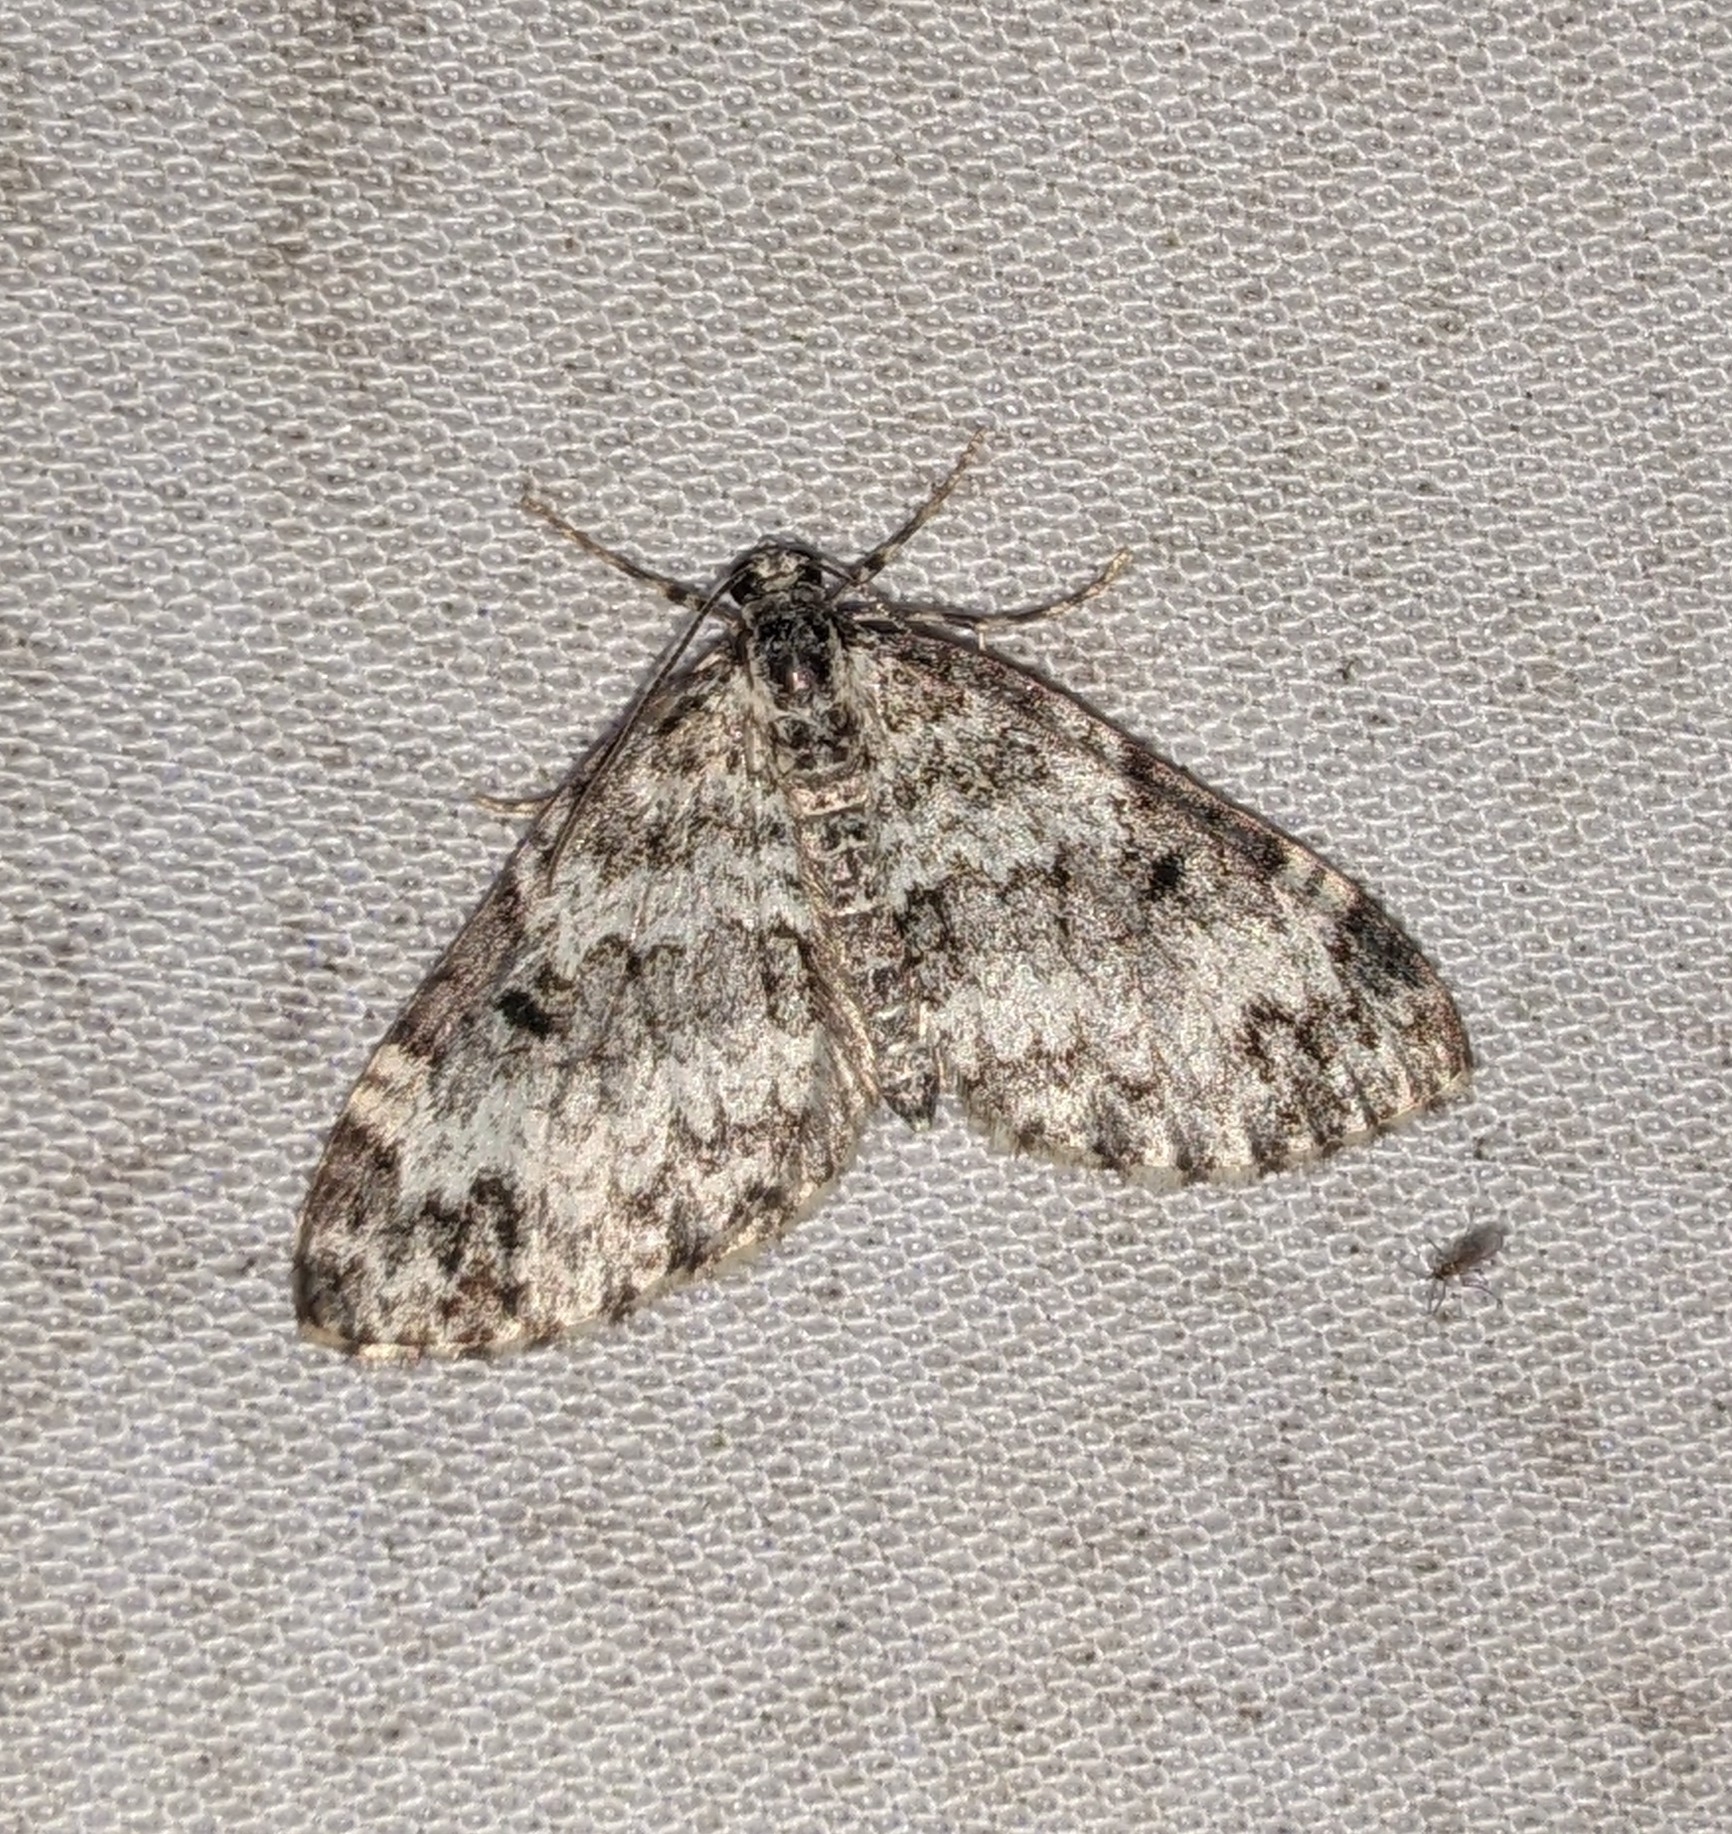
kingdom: Animalia
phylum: Arthropoda
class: Insecta
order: Lepidoptera
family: Geometridae
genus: Spargania
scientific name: Spargania magnoliata
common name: Double-banded carpet
